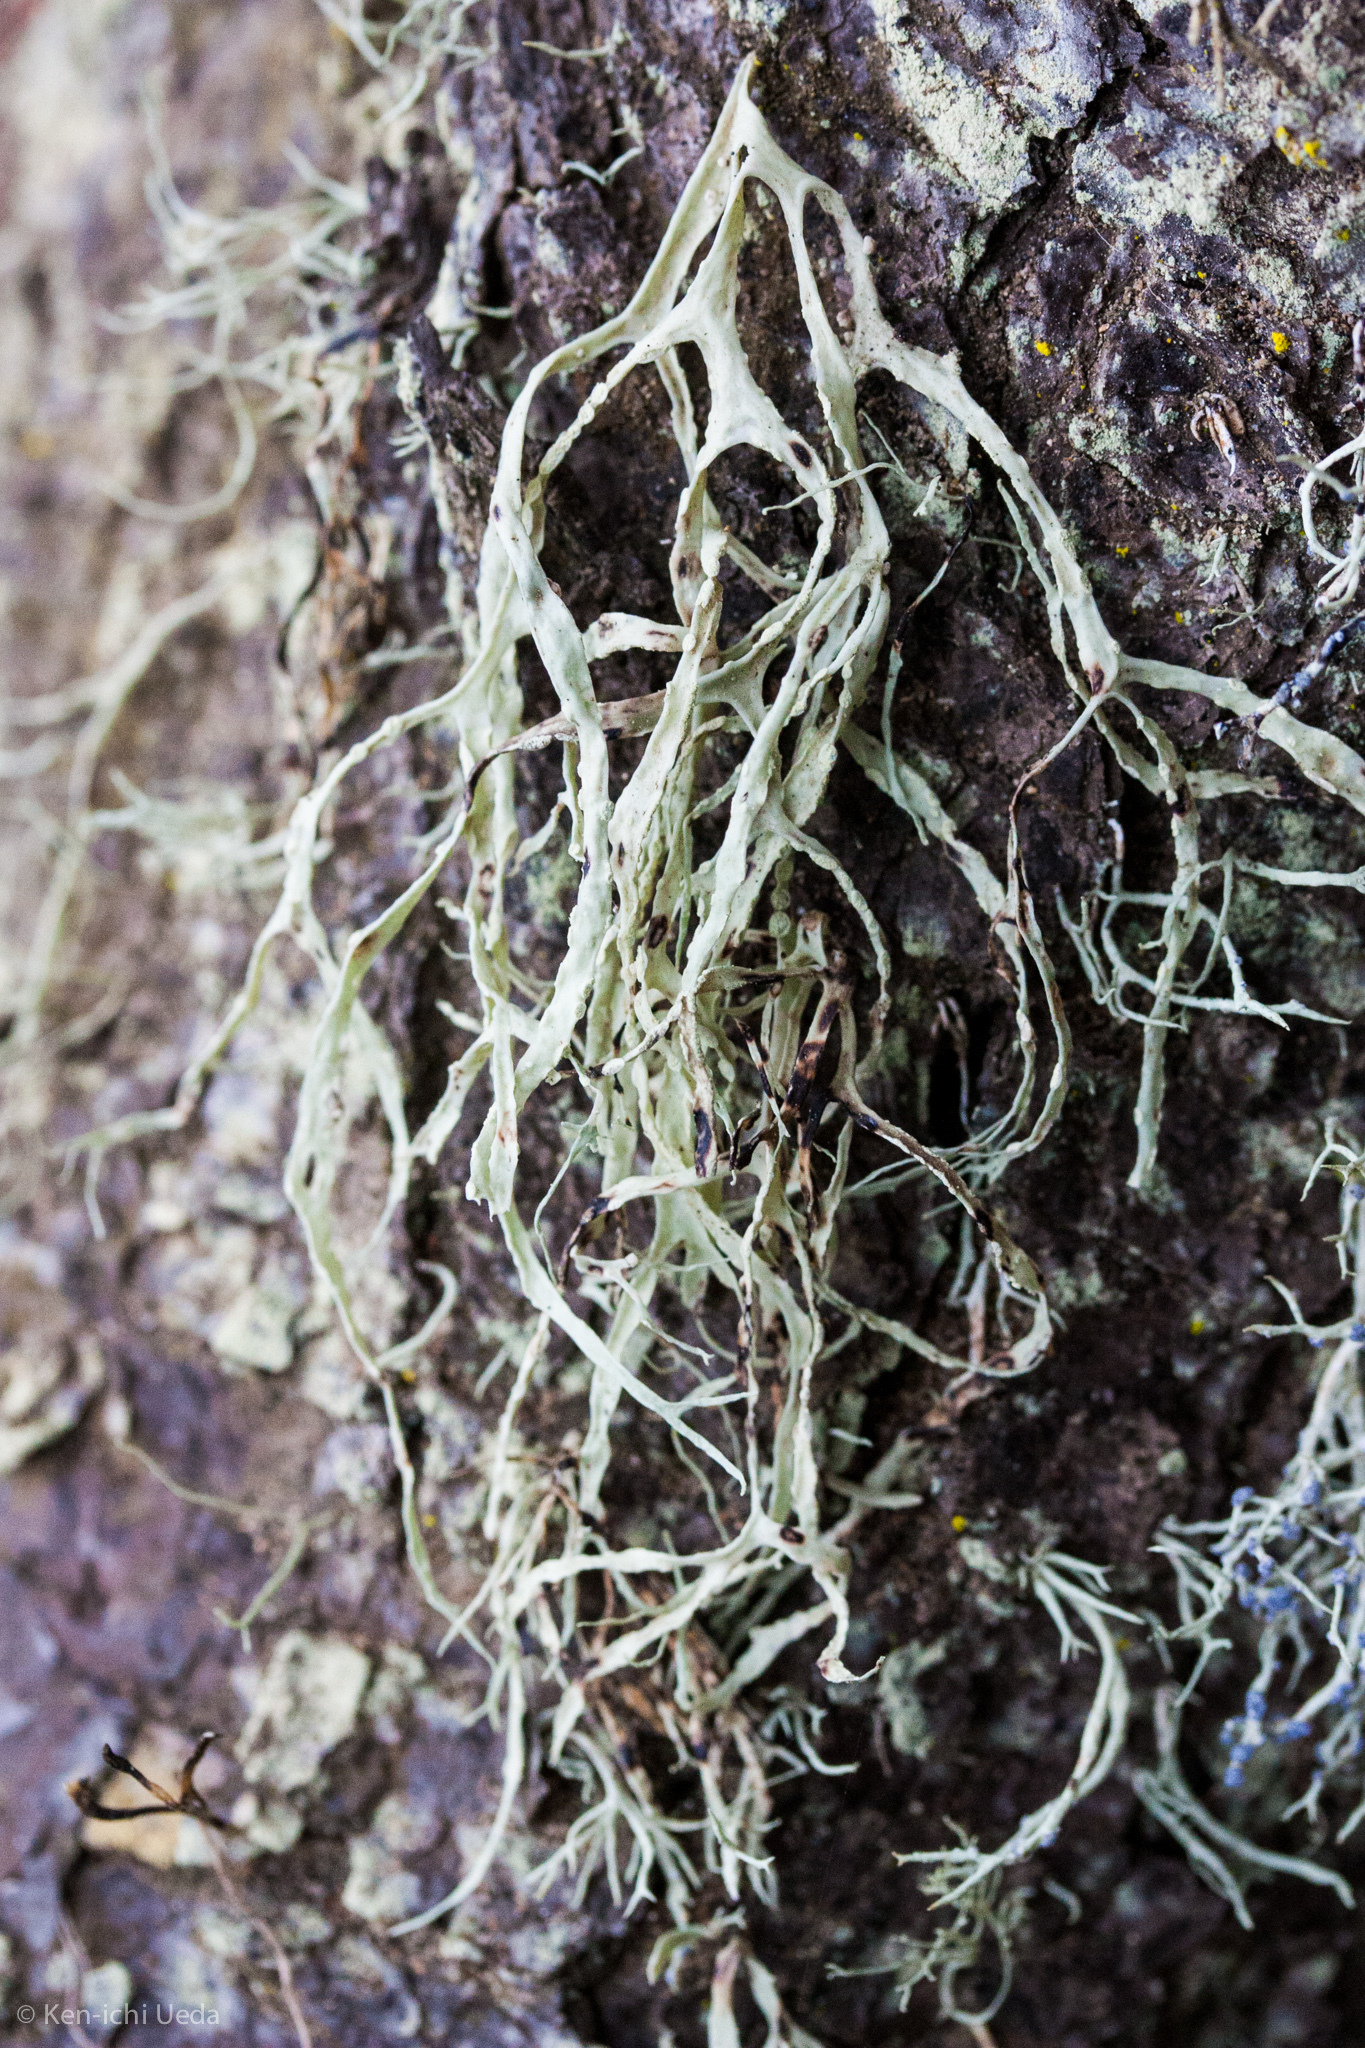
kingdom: Fungi
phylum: Ascomycota
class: Lecanoromycetes
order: Lecanorales
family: Ramalinaceae
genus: Ramalina
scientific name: Ramalina farinacea
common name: Farinose cartilage lichen
